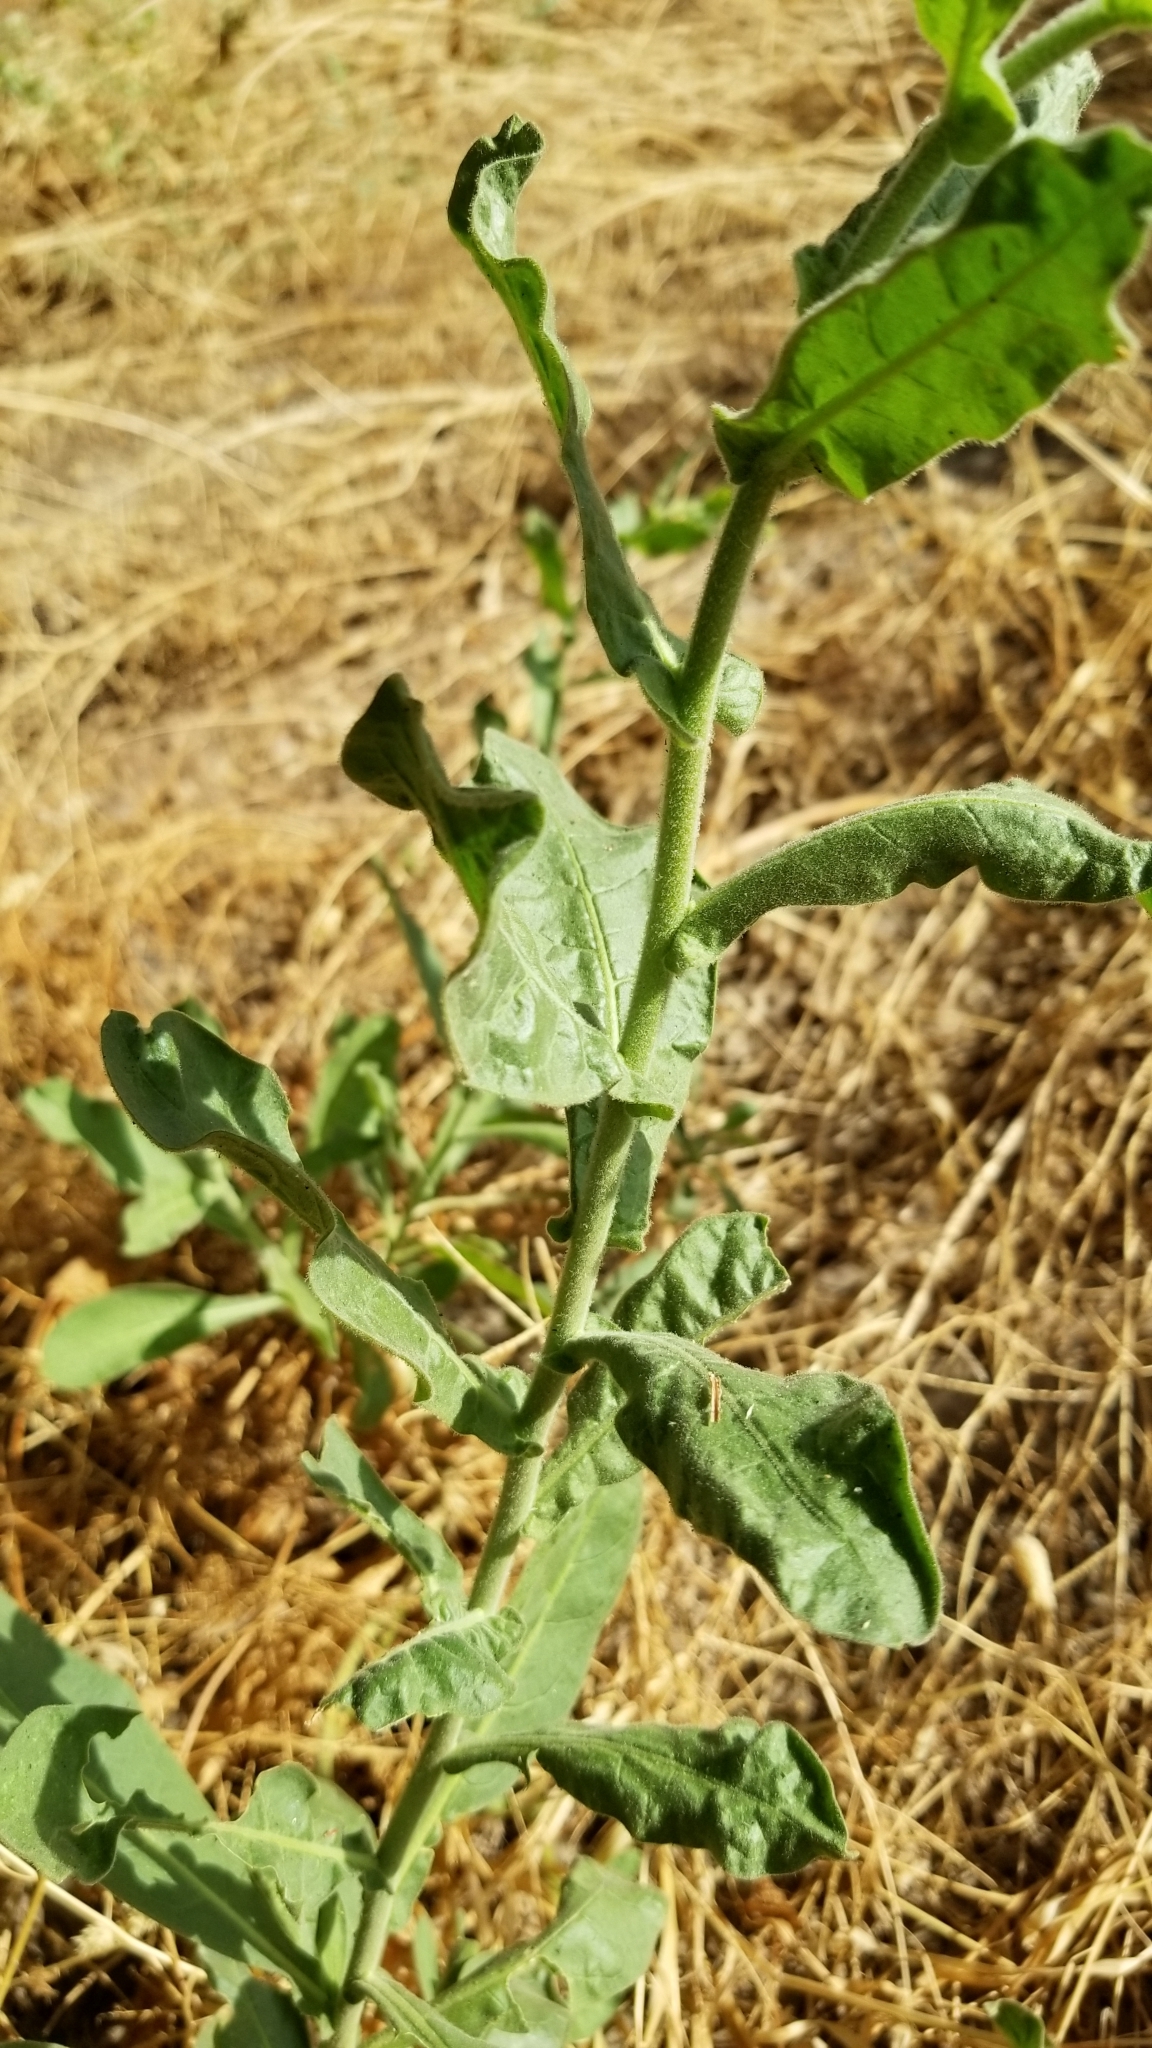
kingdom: Plantae
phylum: Tracheophyta
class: Magnoliopsida
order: Solanales
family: Solanaceae
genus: Nicotiana
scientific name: Nicotiana obtusifolia
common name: Desert tobacco
